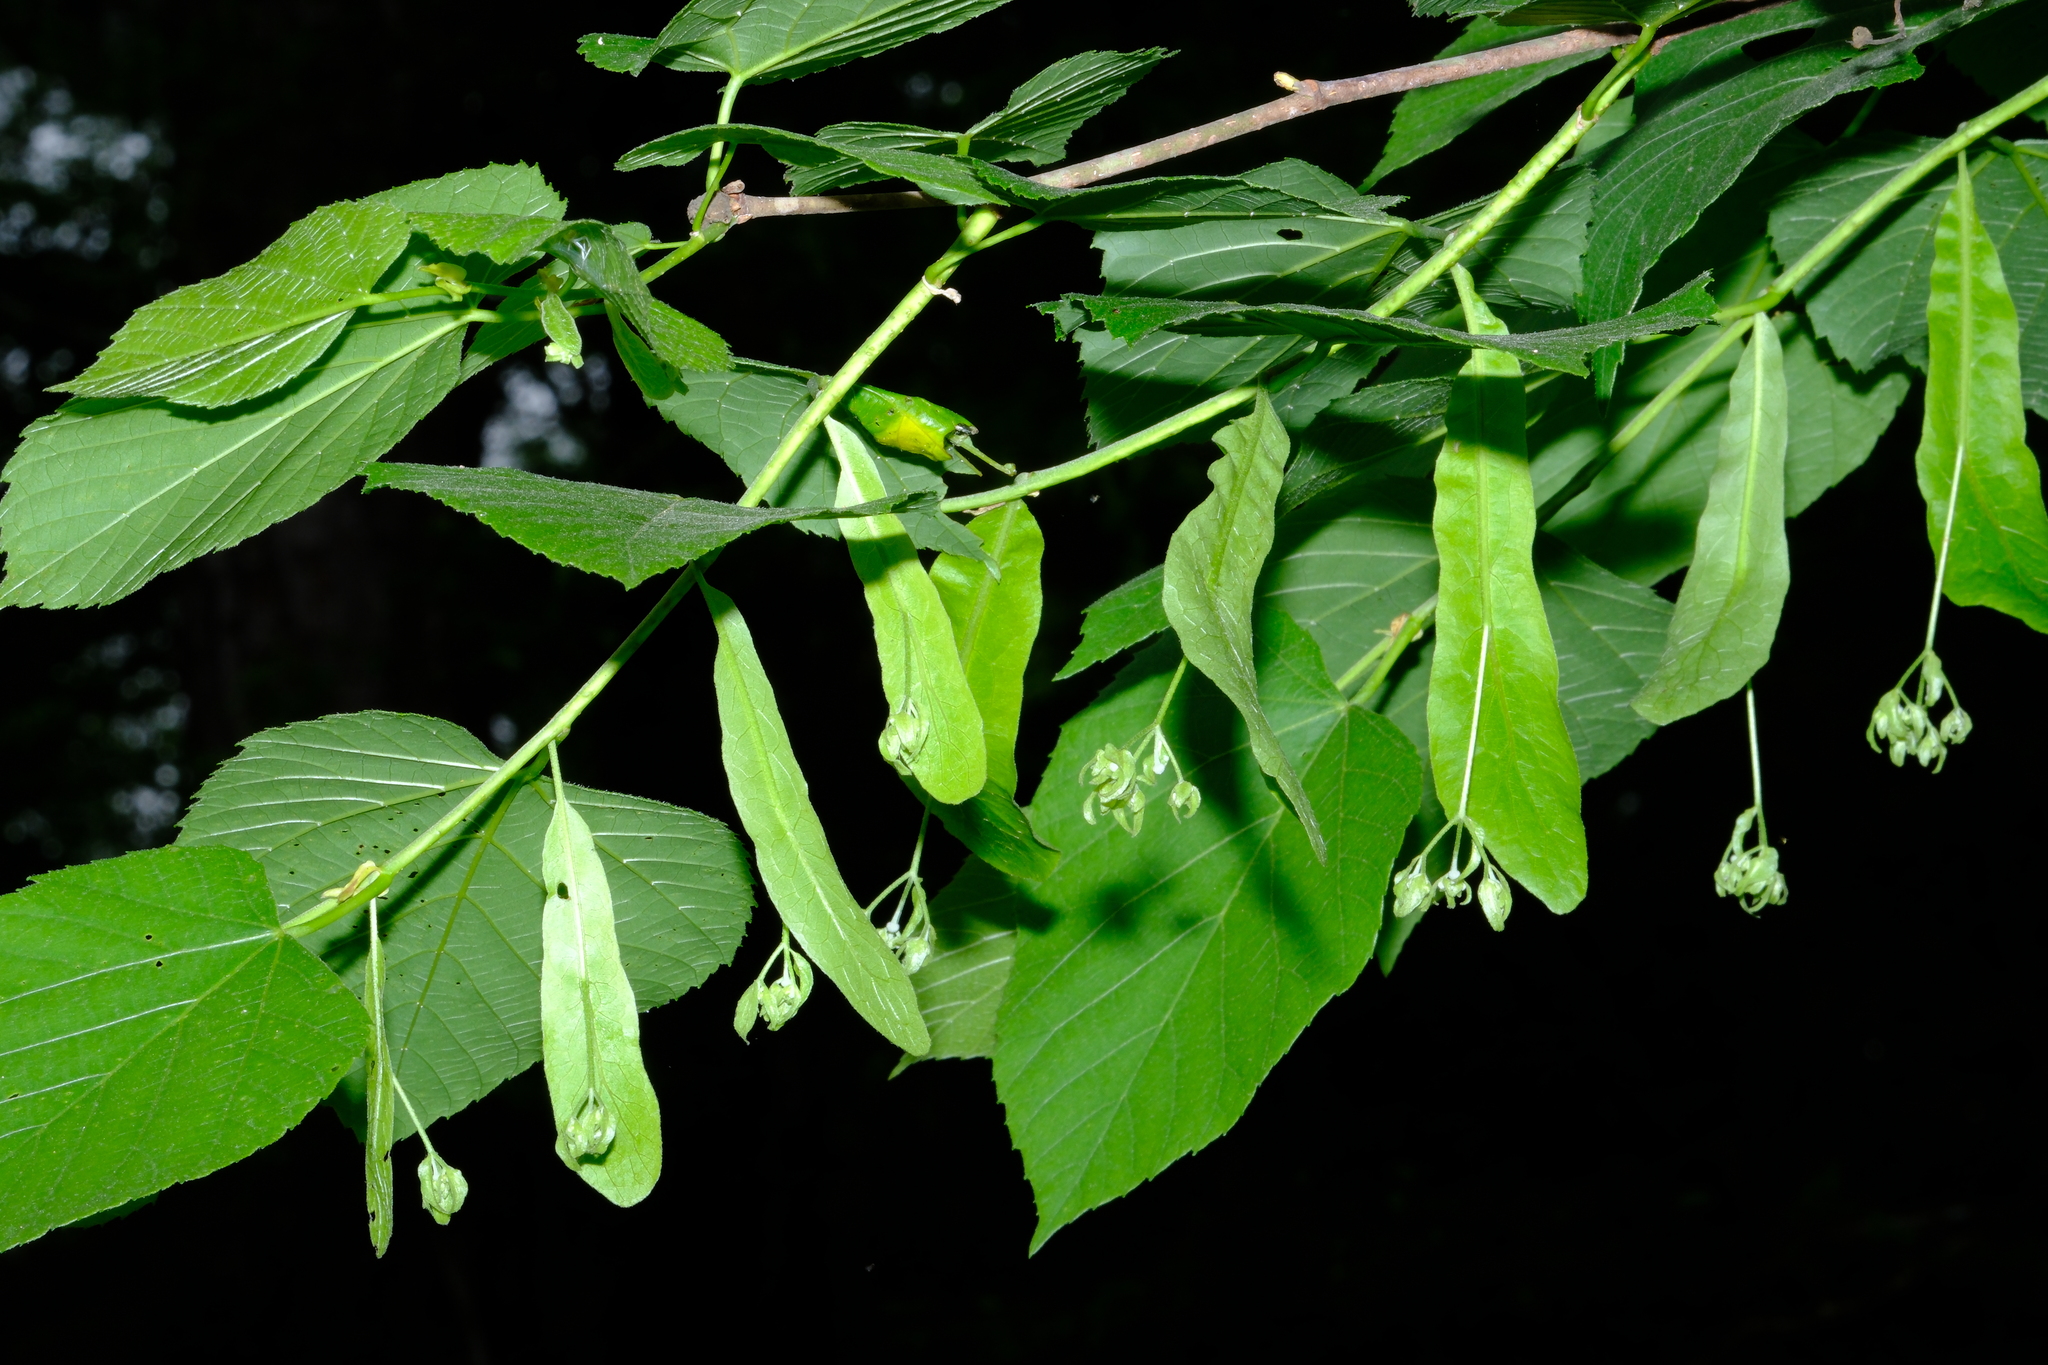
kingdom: Plantae
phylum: Tracheophyta
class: Magnoliopsida
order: Malvales
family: Malvaceae
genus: Tilia
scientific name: Tilia americana
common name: Basswood
